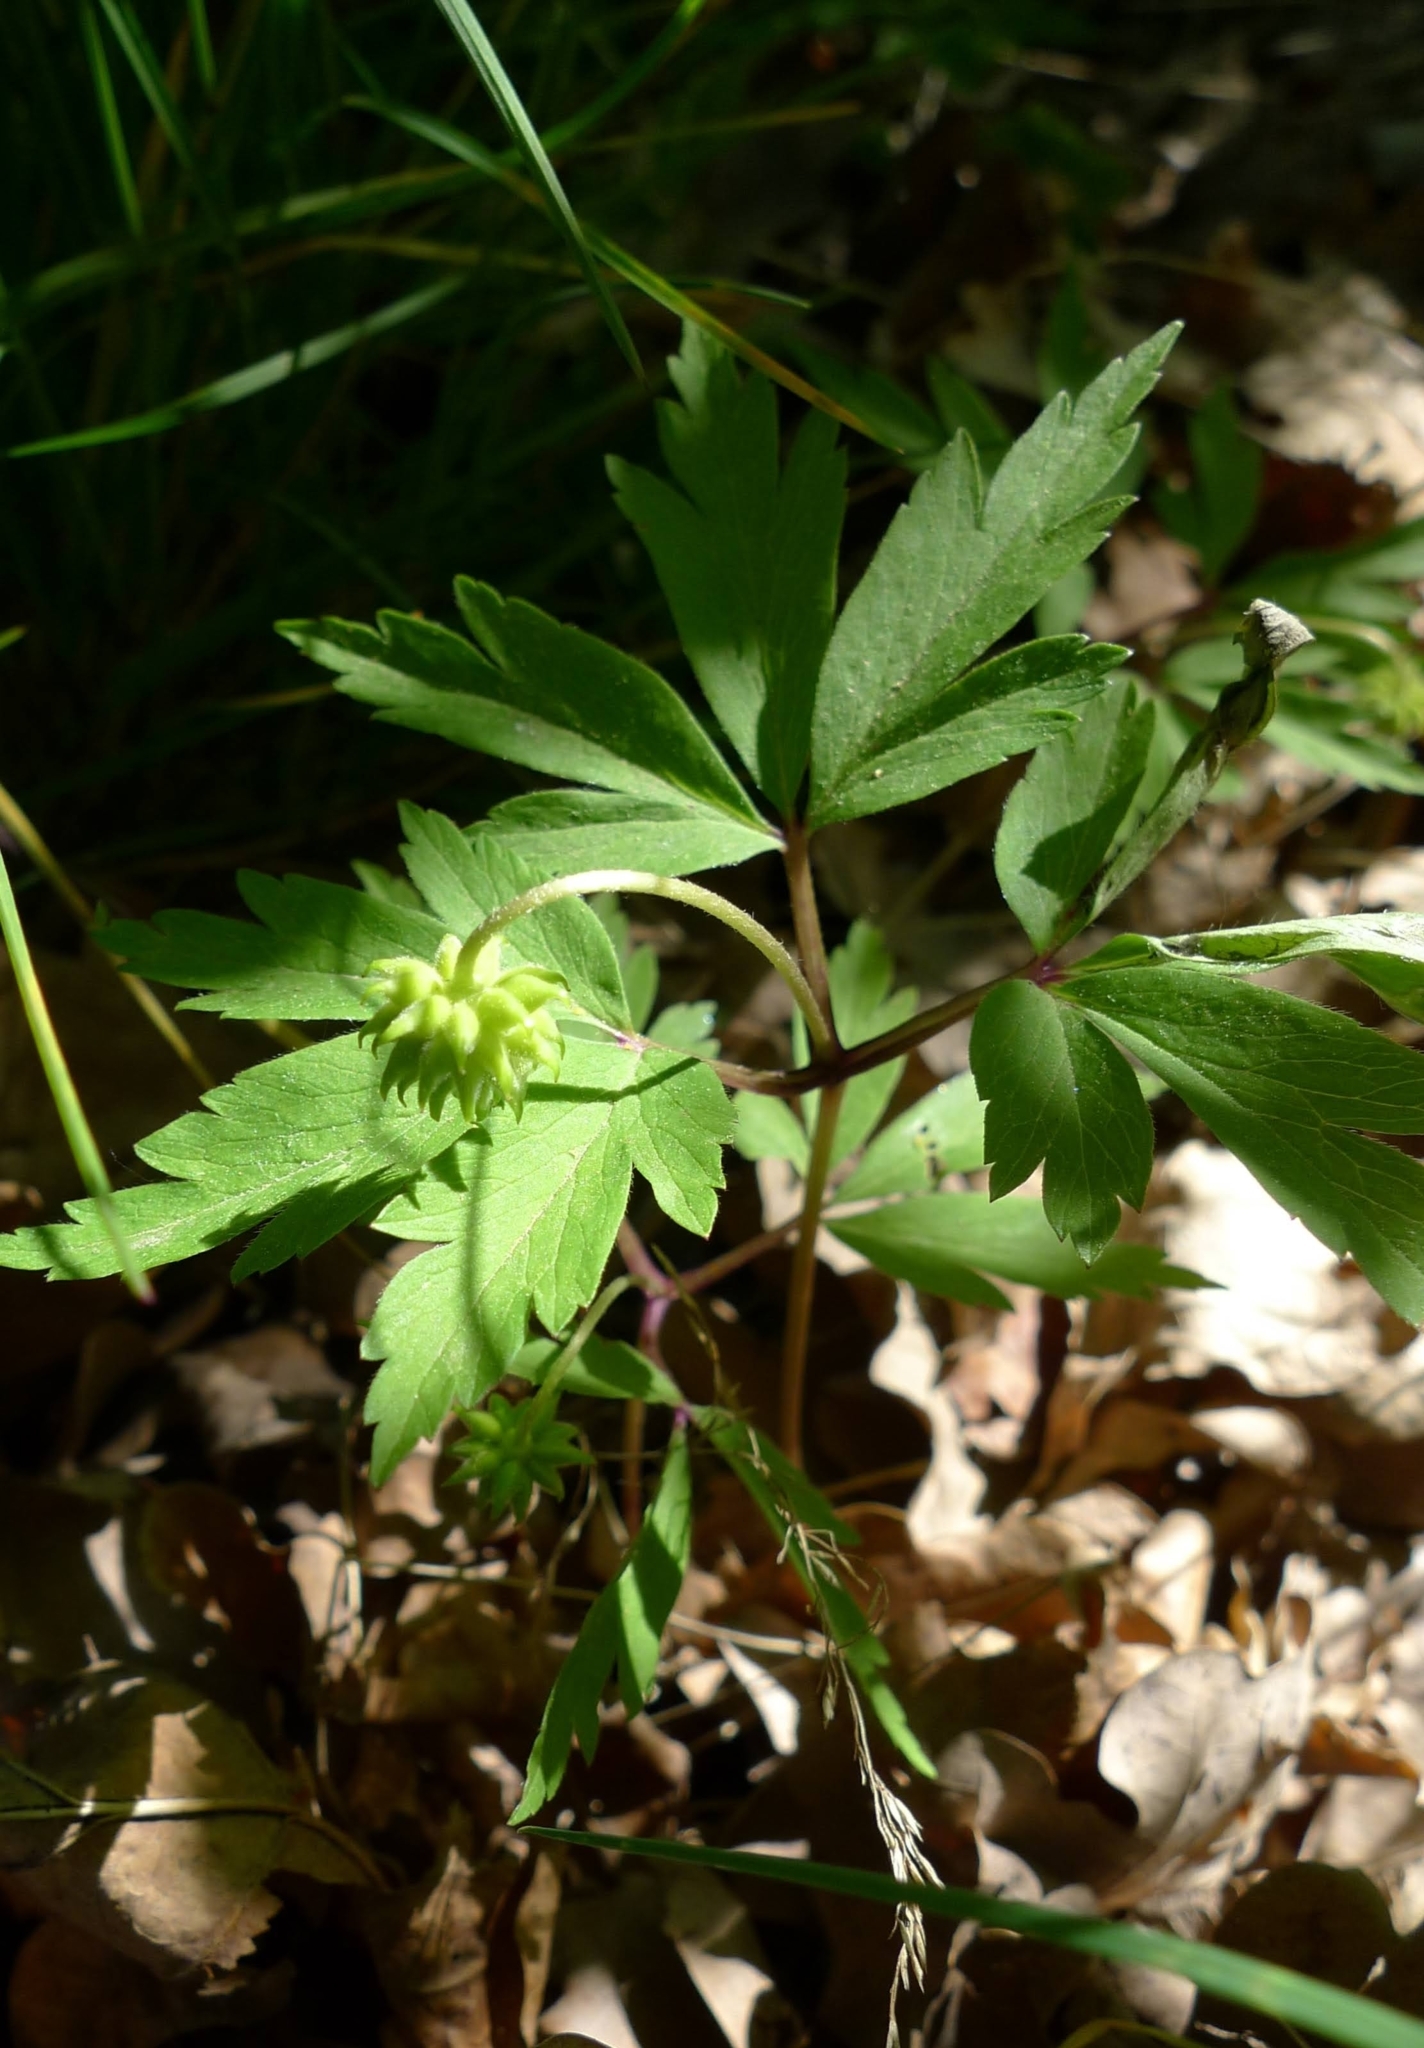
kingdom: Plantae
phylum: Tracheophyta
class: Magnoliopsida
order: Ranunculales
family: Ranunculaceae
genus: Anemone
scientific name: Anemone nemorosa
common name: Wood anemone
